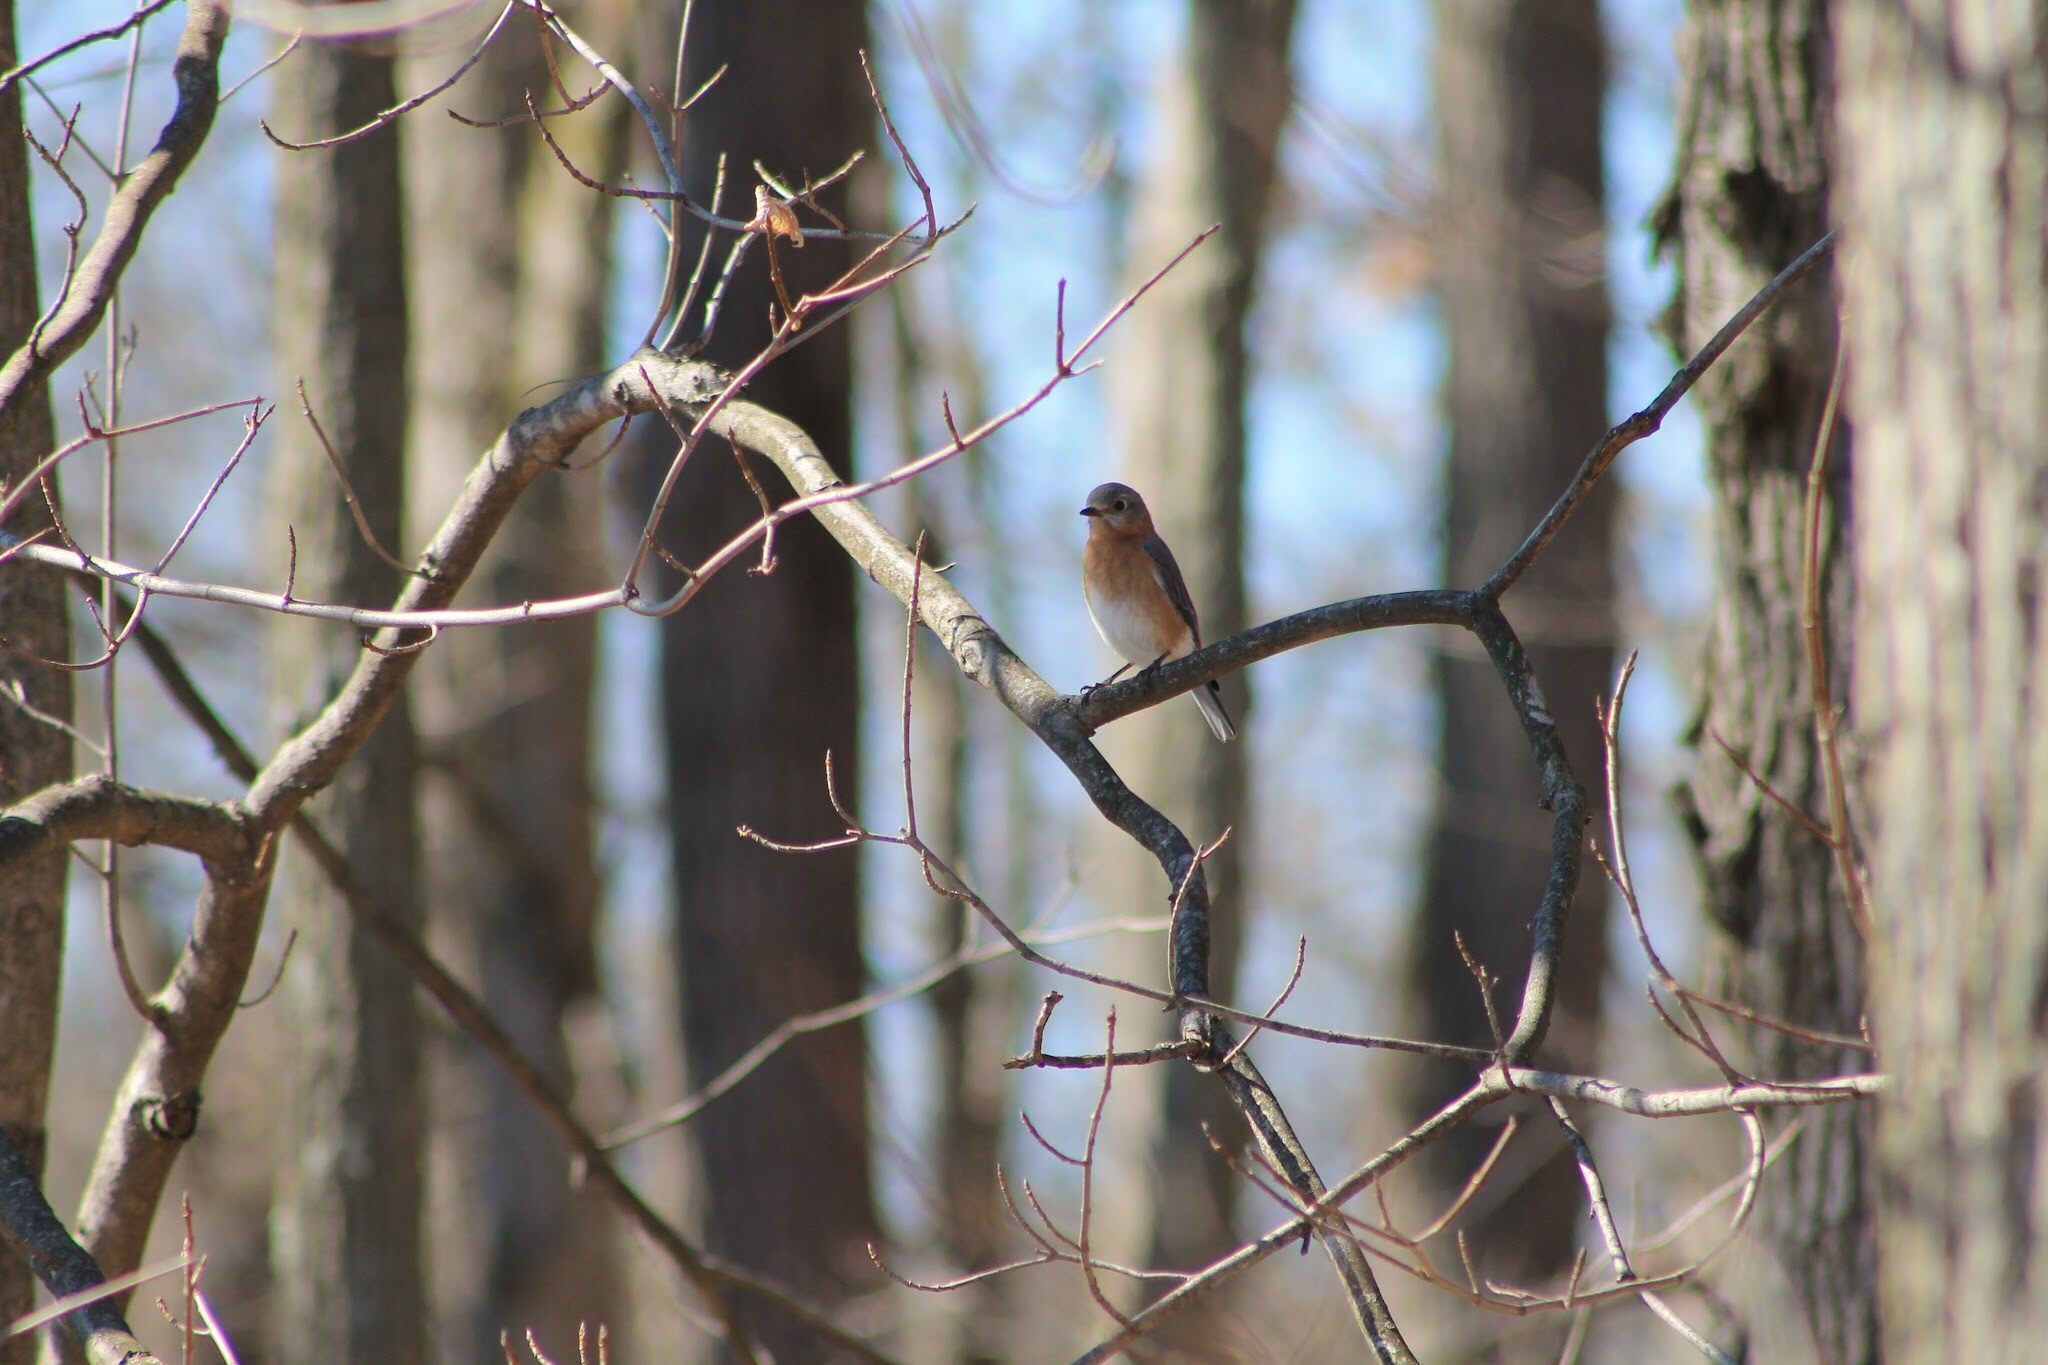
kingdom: Animalia
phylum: Chordata
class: Aves
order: Passeriformes
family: Turdidae
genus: Sialia
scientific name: Sialia sialis
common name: Eastern bluebird
